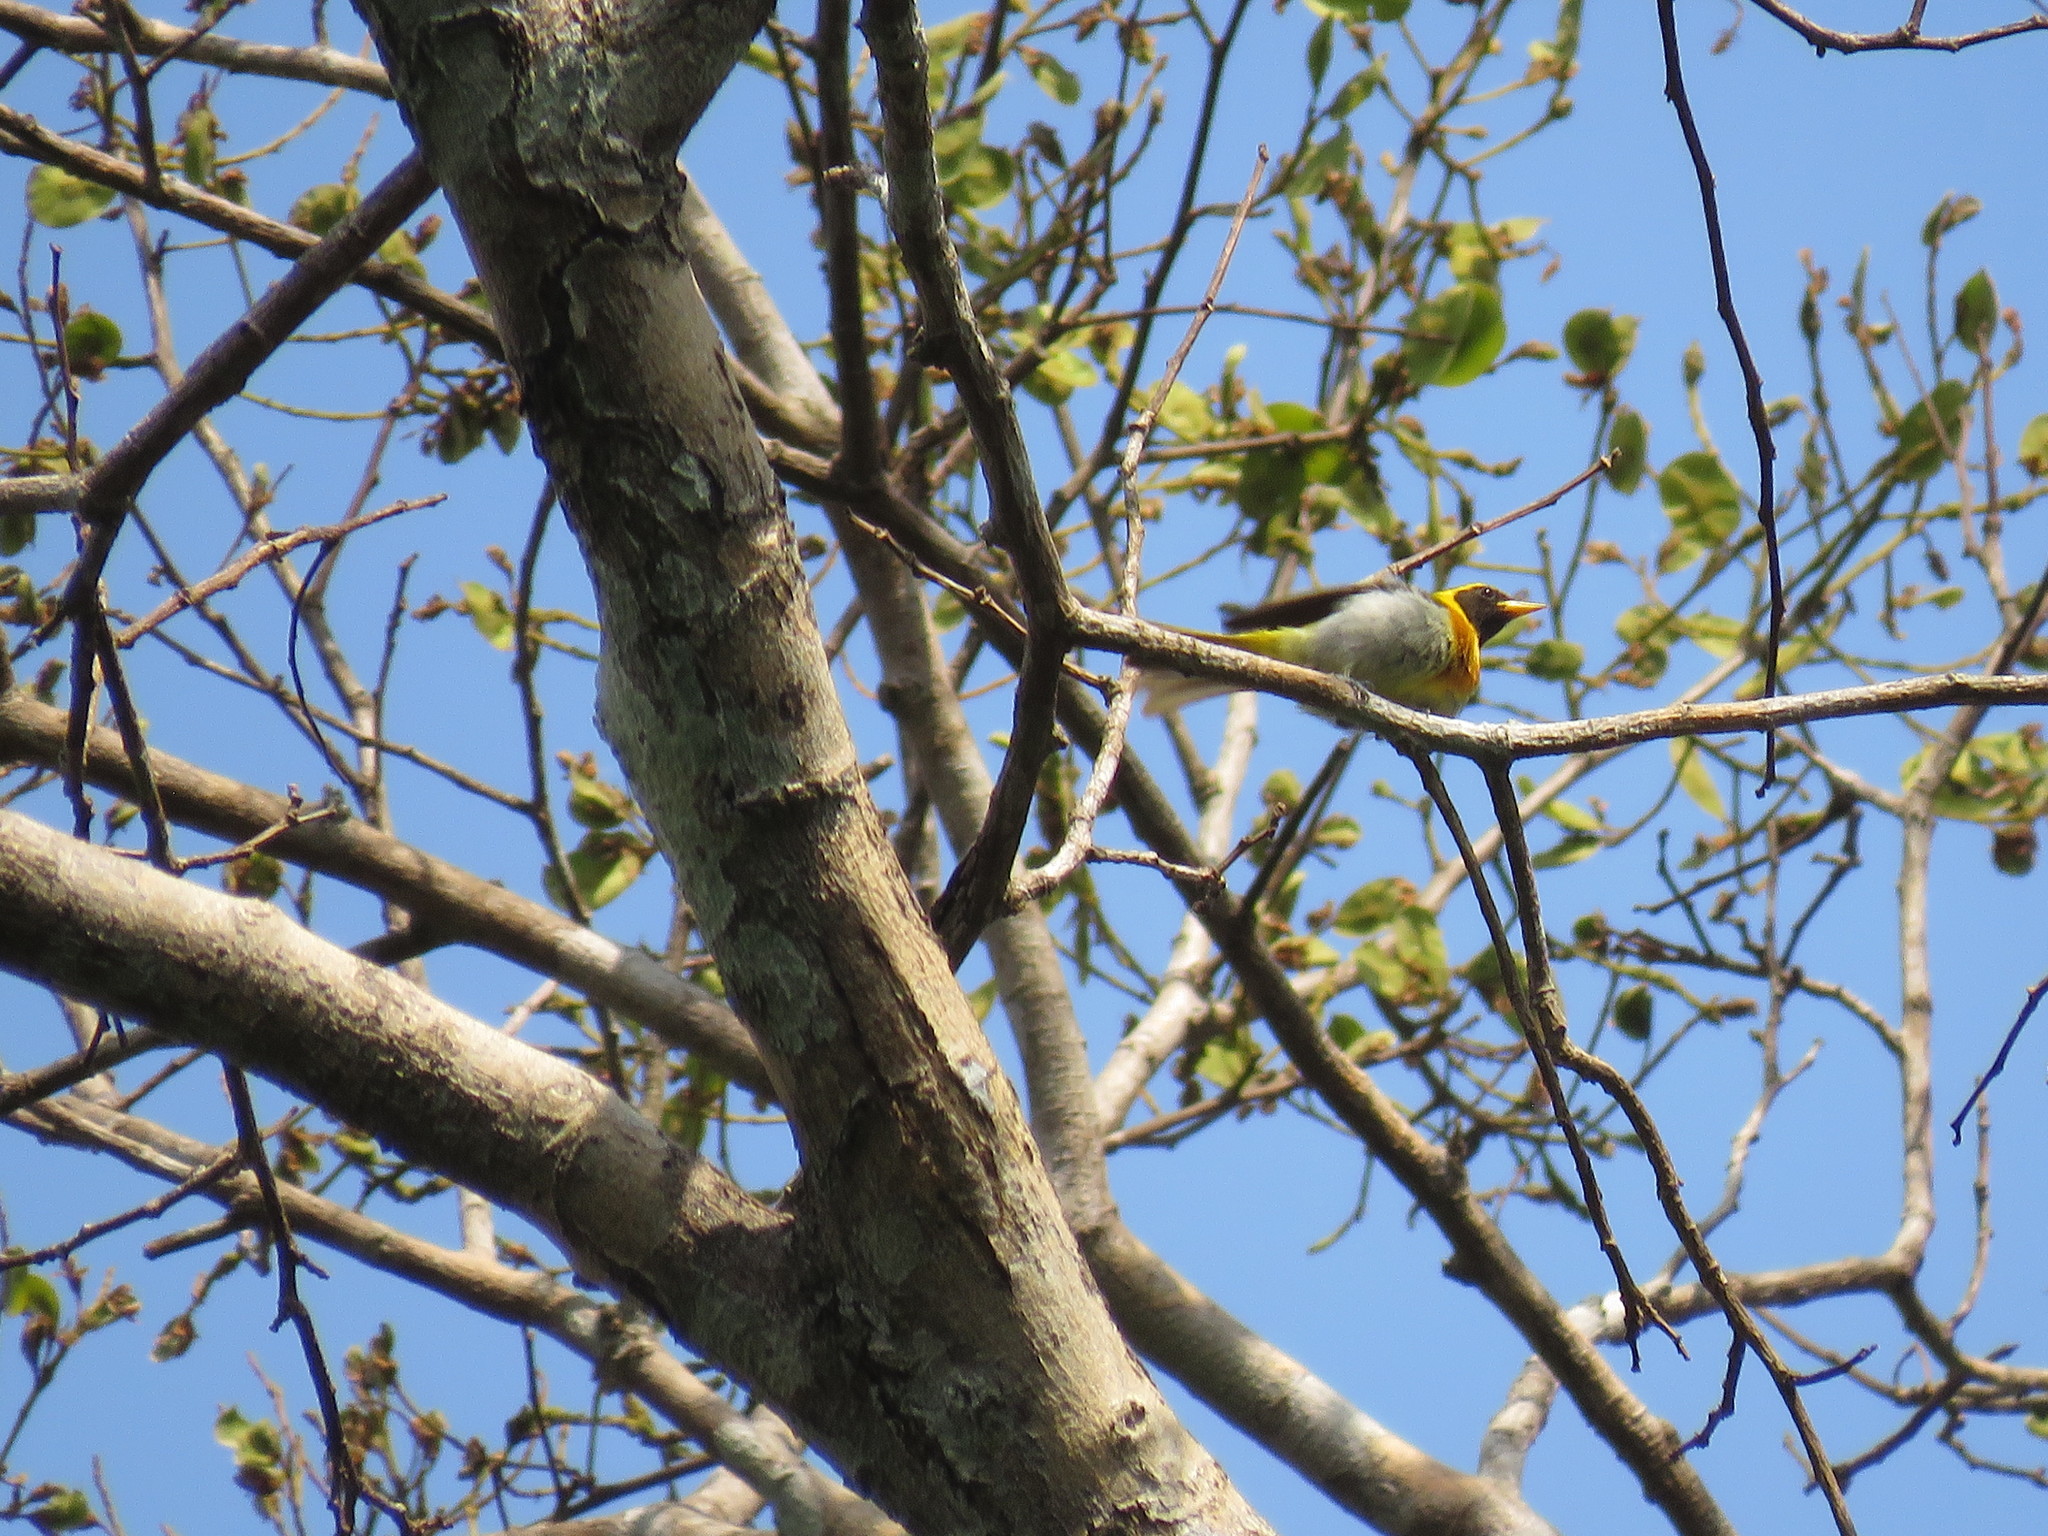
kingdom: Animalia
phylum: Chordata
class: Aves
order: Passeriformes
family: Thraupidae
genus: Hemithraupis
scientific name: Hemithraupis guira
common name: Guira tanager
